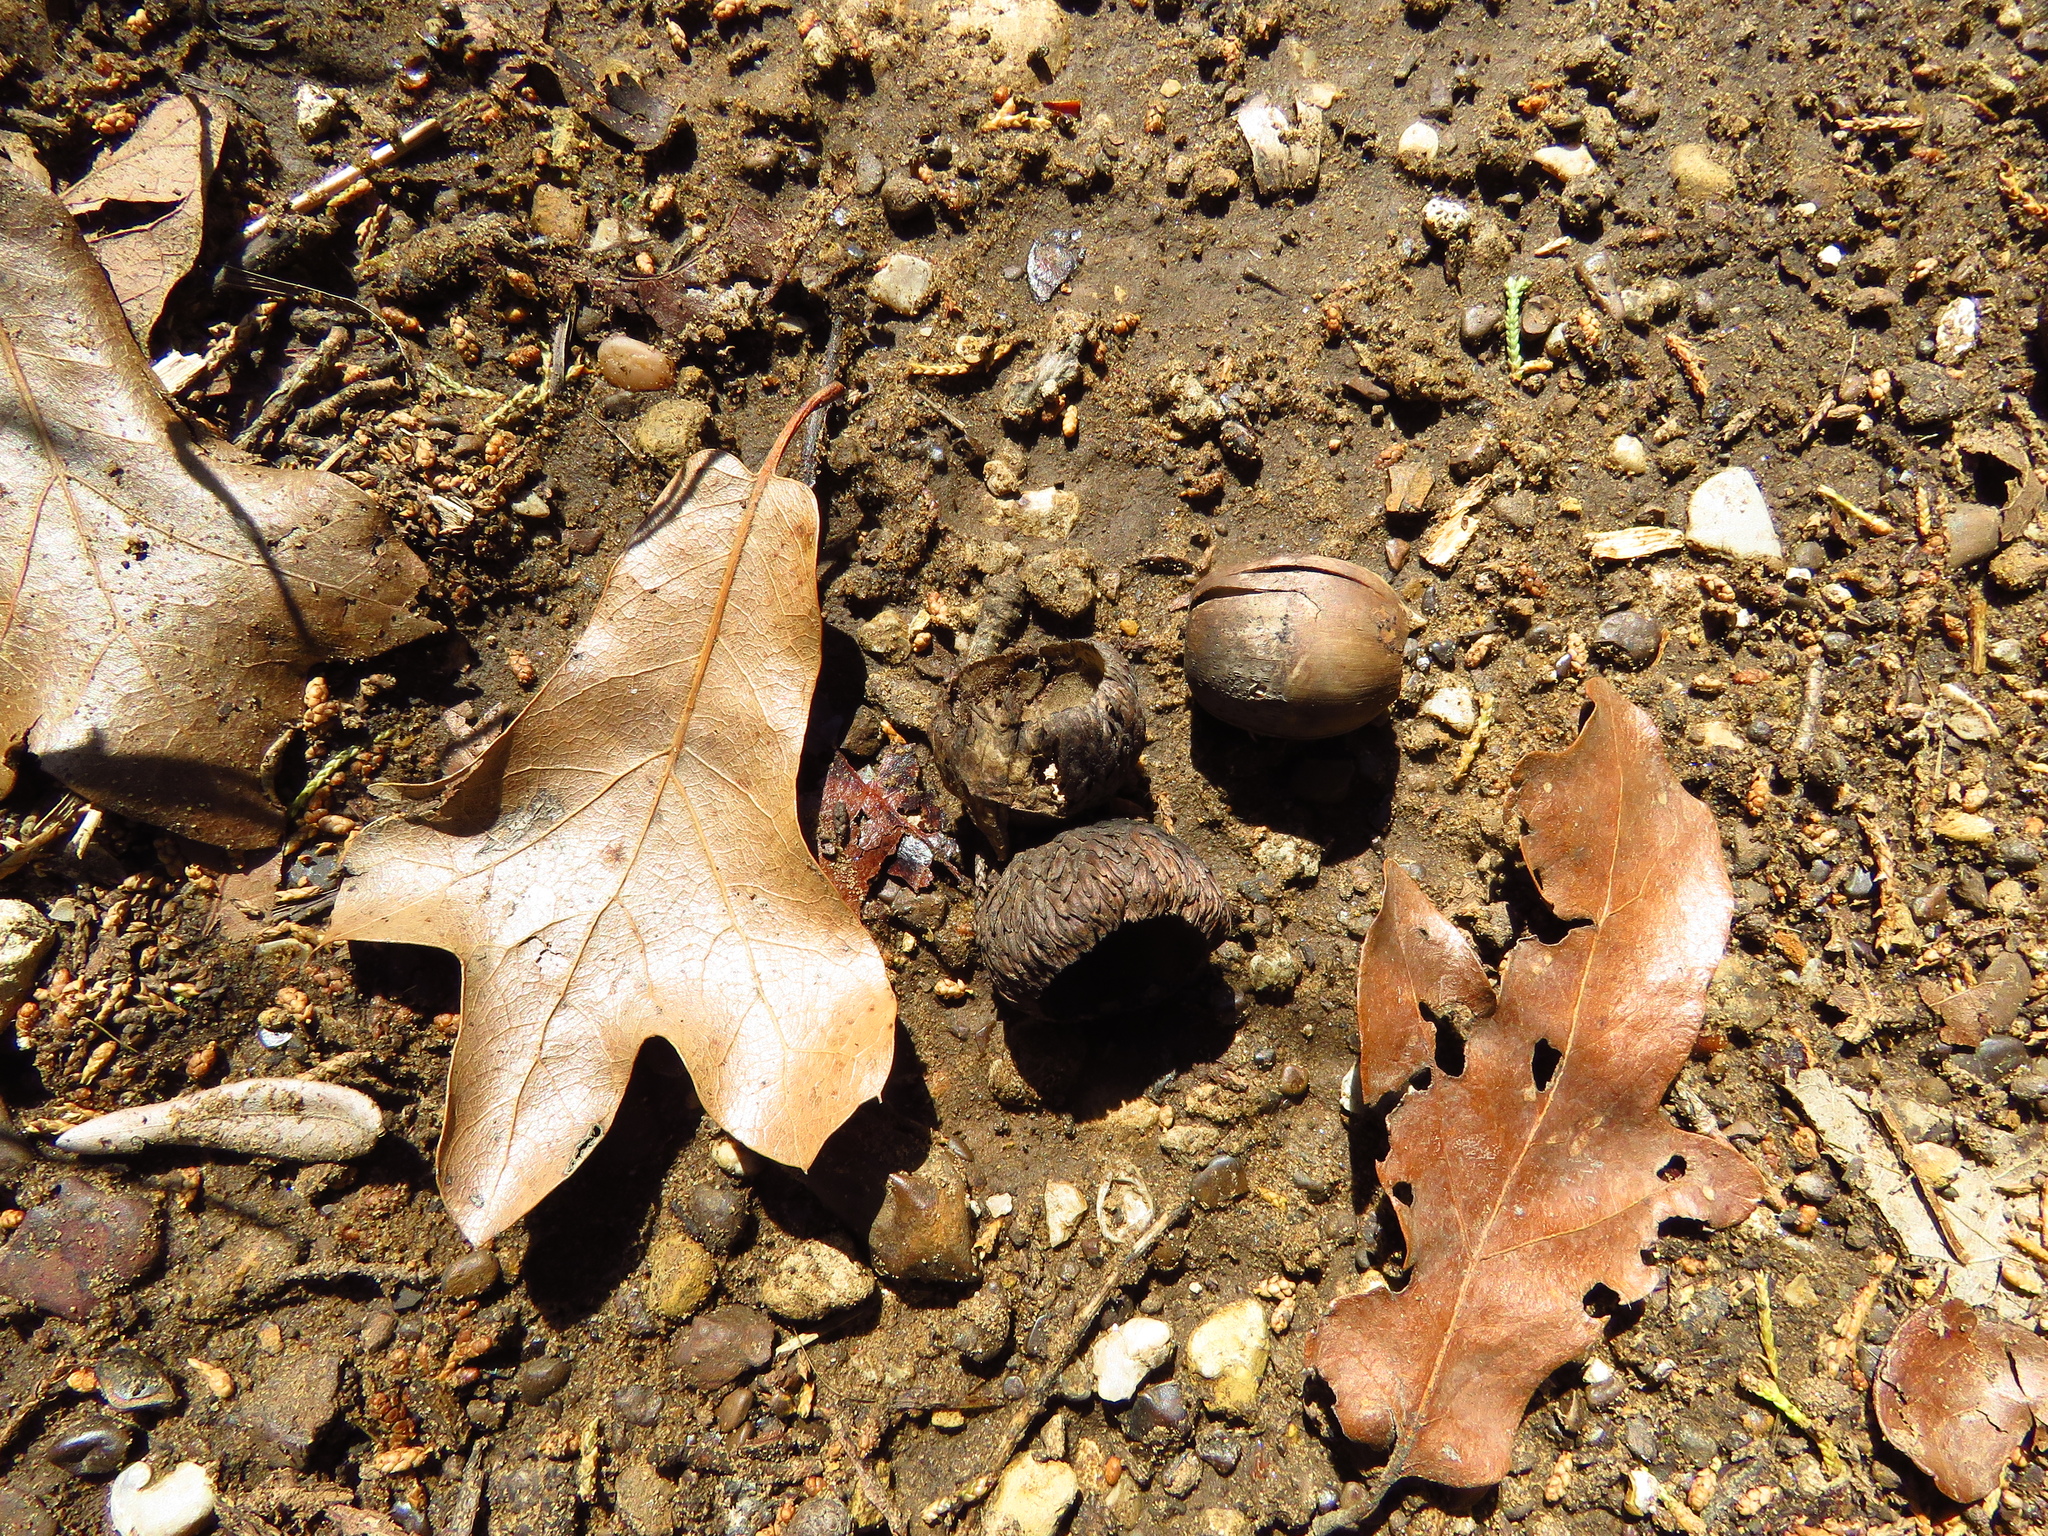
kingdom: Plantae
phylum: Tracheophyta
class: Magnoliopsida
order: Fagales
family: Fagaceae
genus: Quercus
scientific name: Quercus marilandica
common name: Blackjack oak
